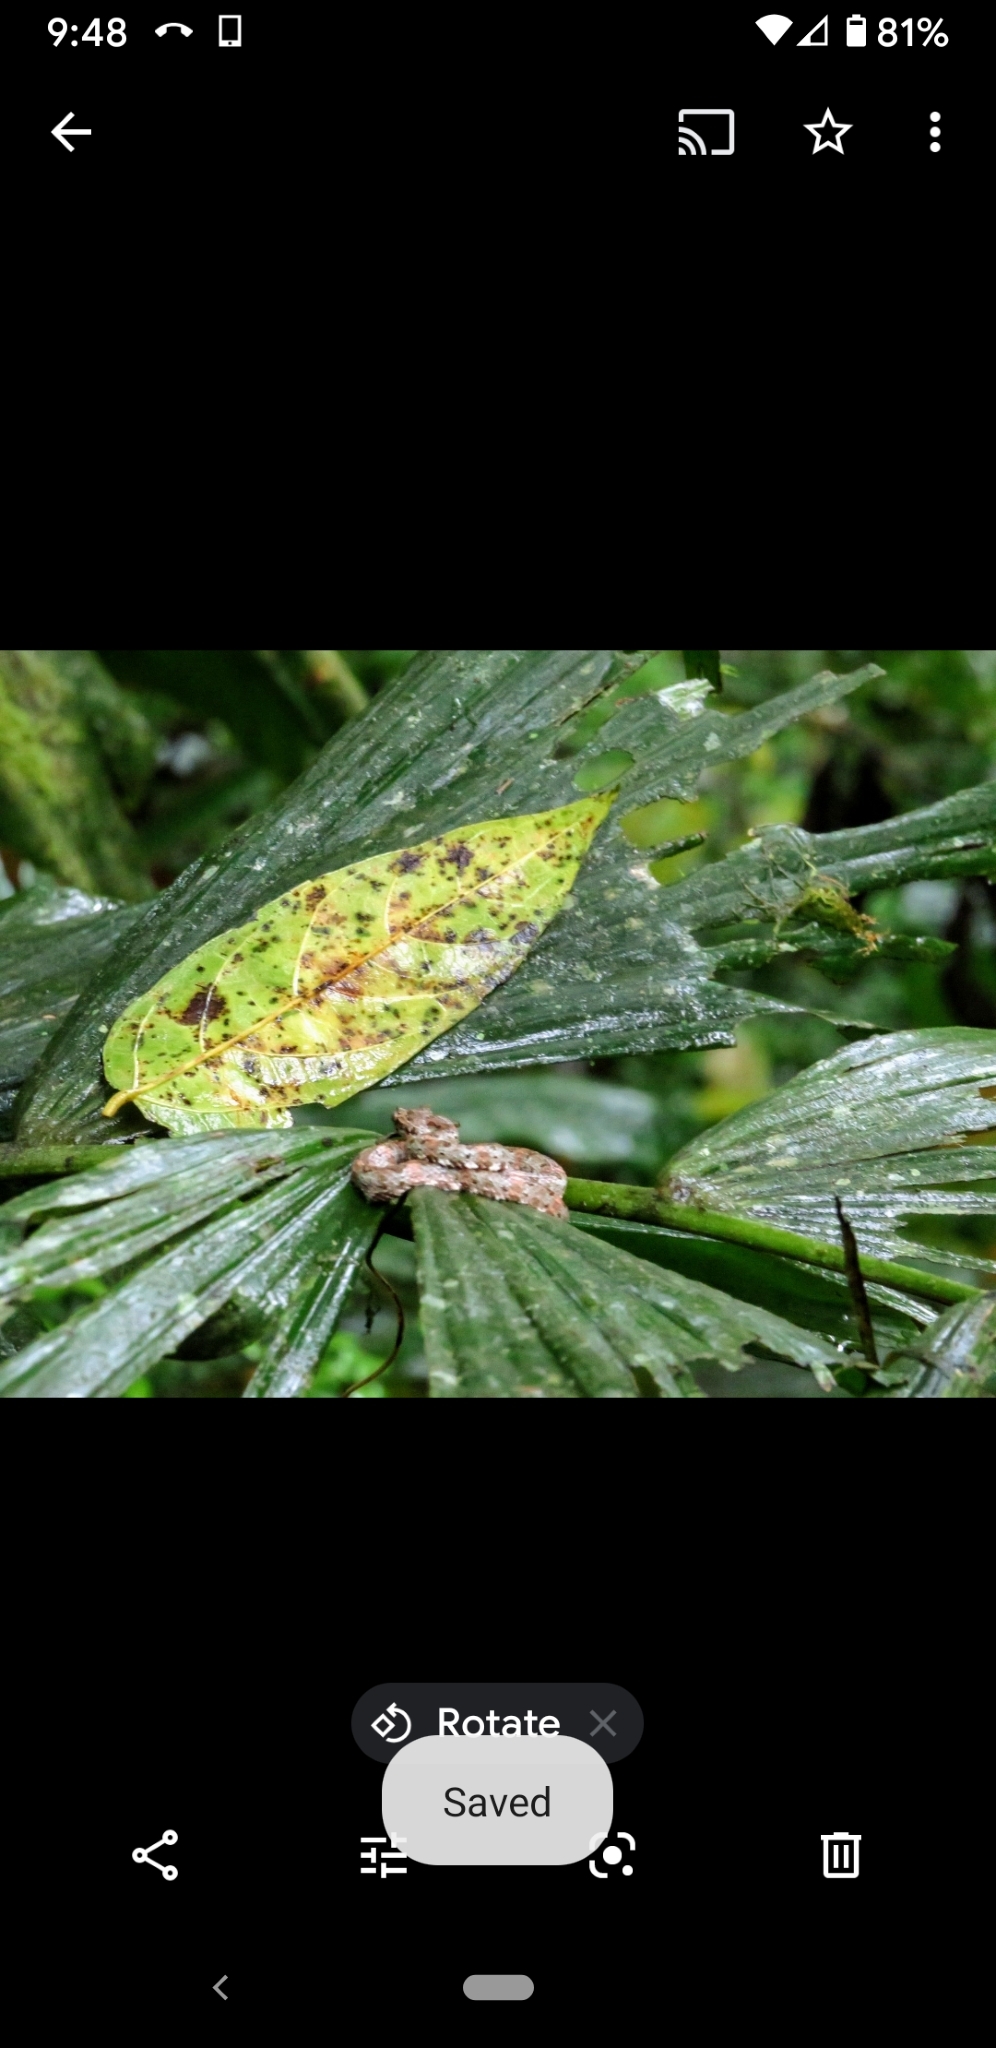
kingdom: Animalia
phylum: Chordata
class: Squamata
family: Viperidae
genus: Bothriechis
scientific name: Bothriechis schlegelii
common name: Eyelash viper
